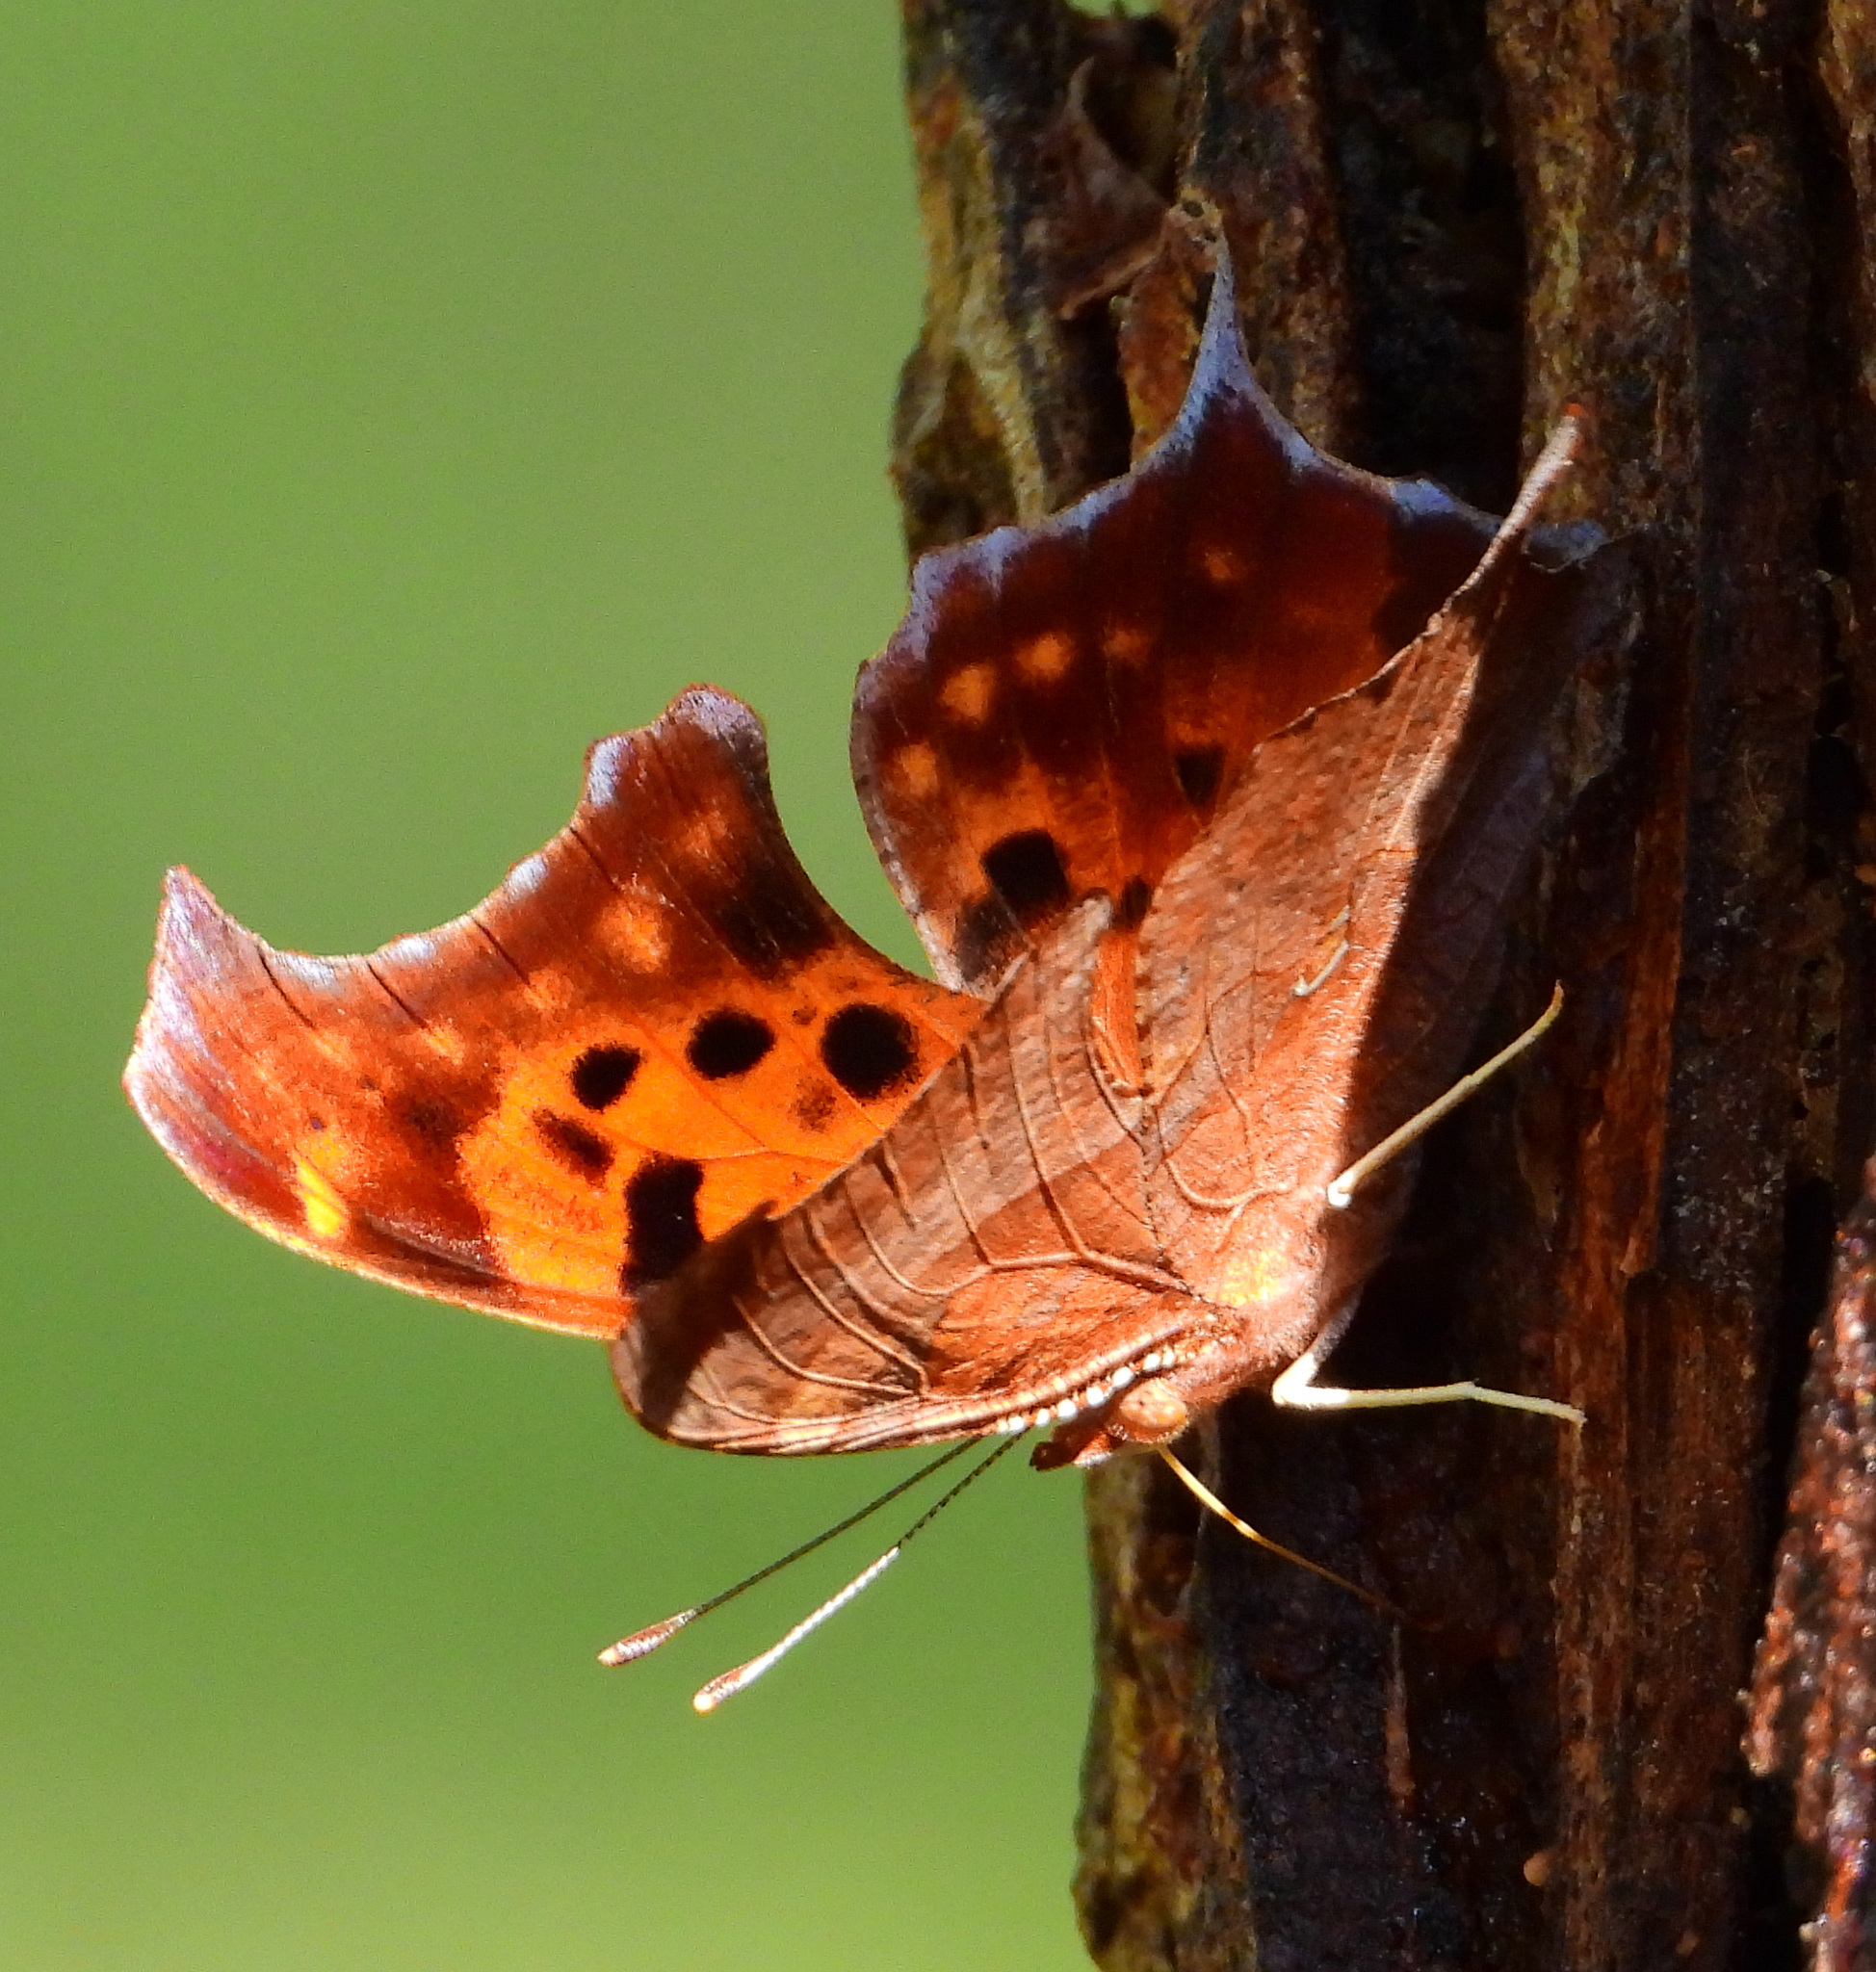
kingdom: Animalia
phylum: Arthropoda
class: Insecta
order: Lepidoptera
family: Nymphalidae
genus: Polygonia
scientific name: Polygonia interrogationis
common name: Question mark
